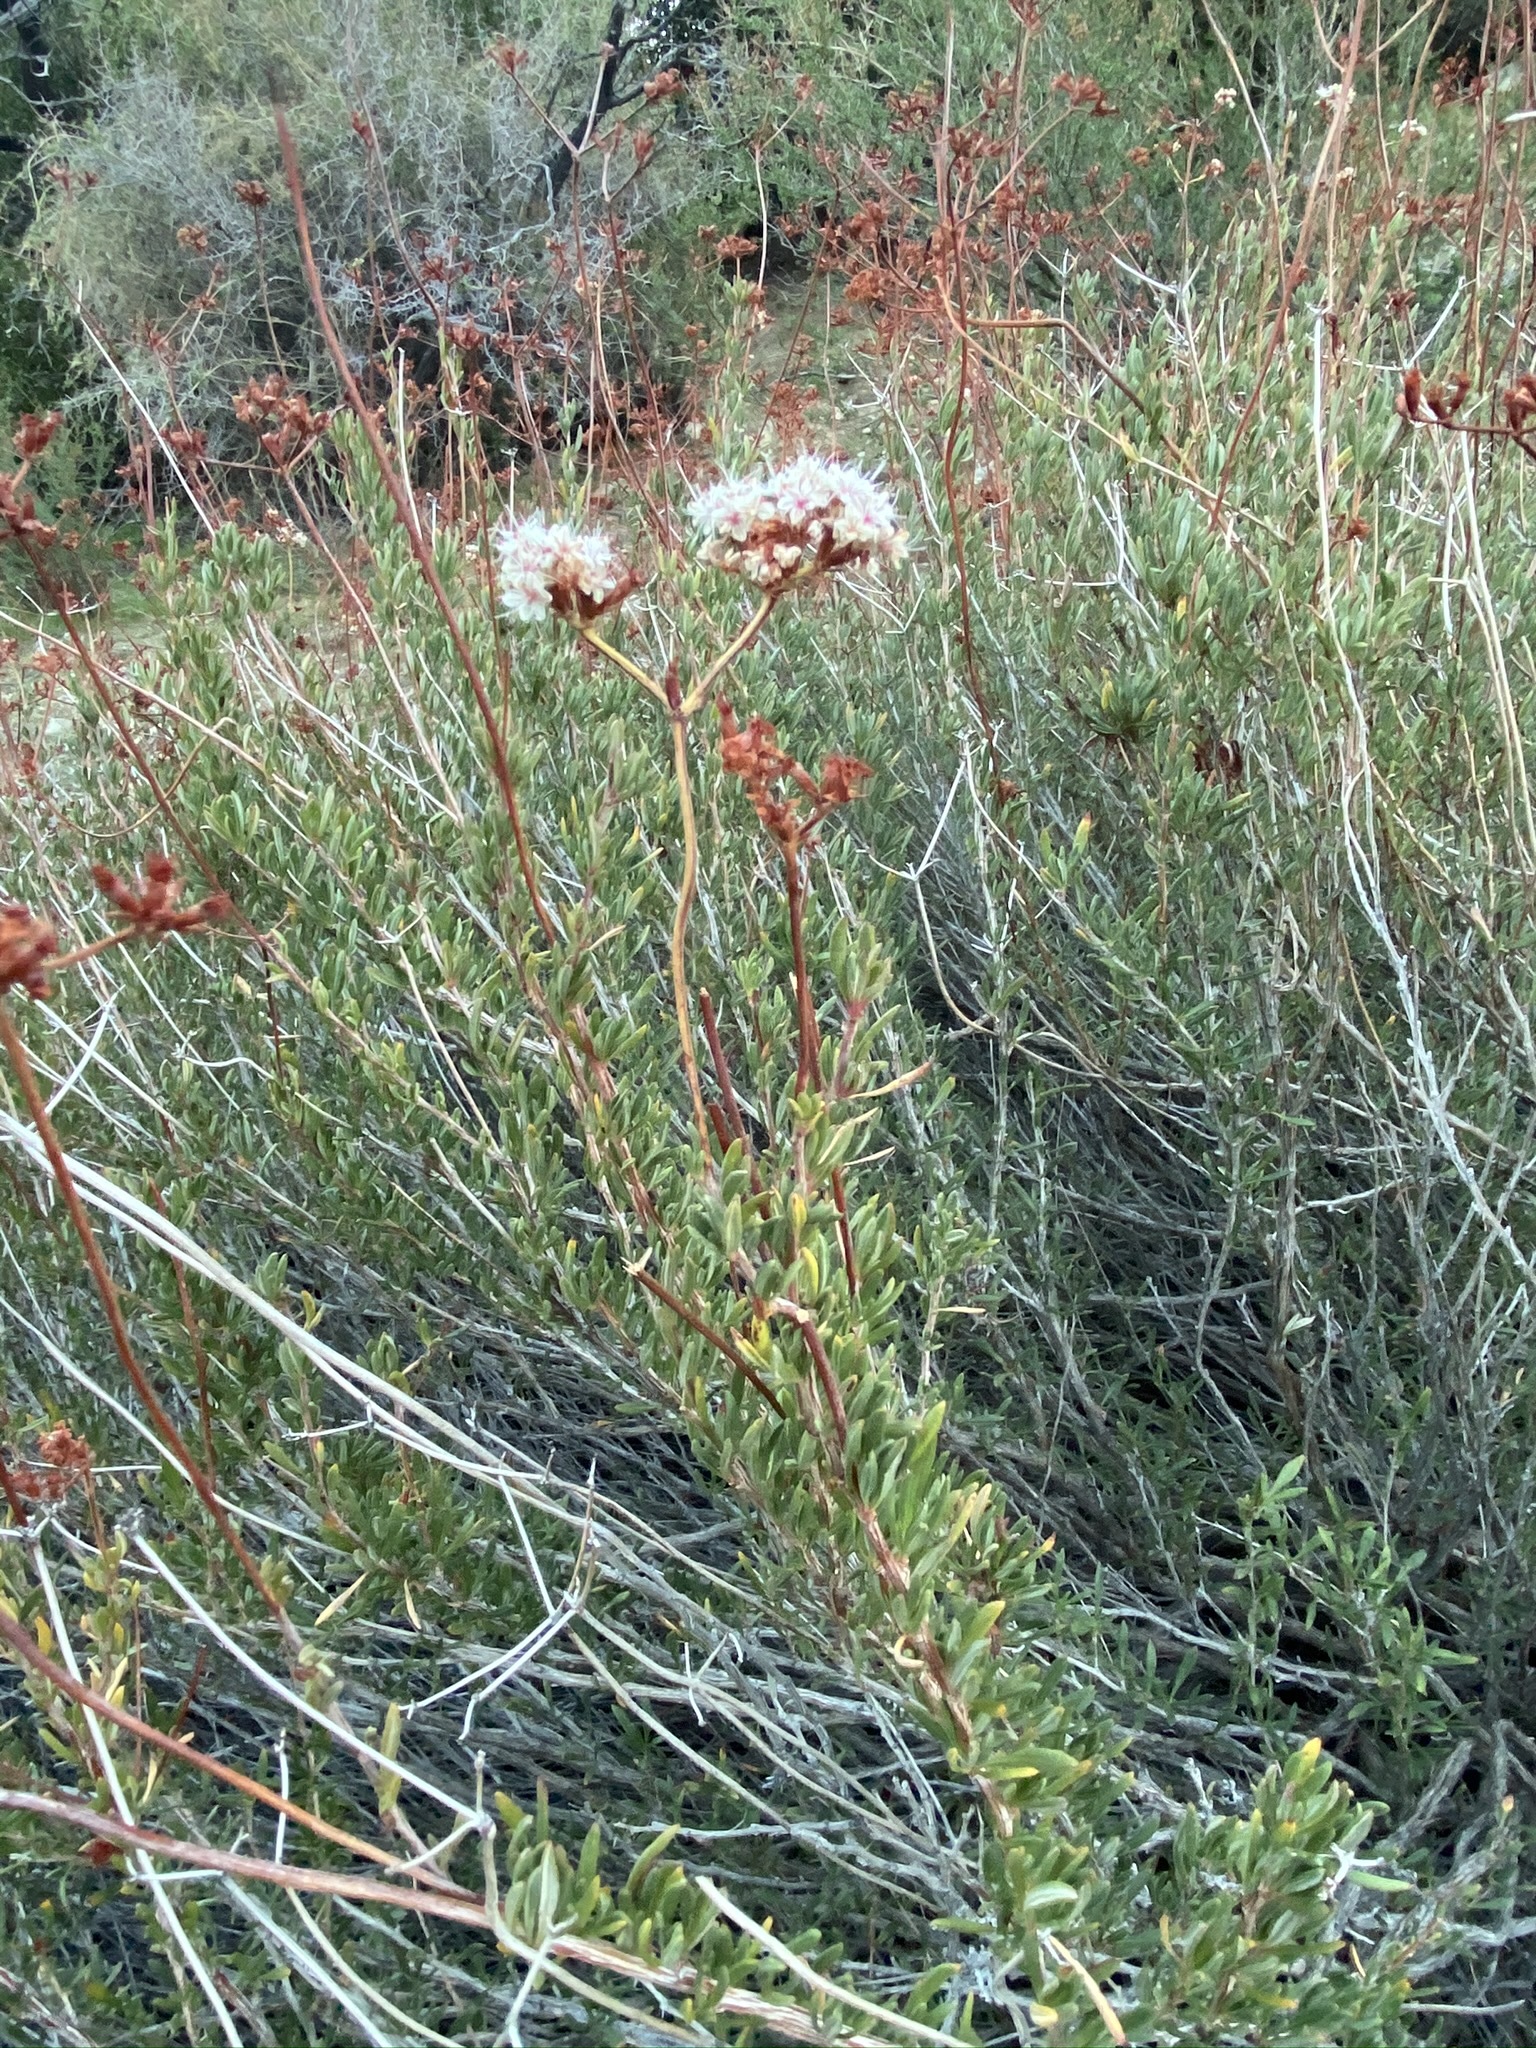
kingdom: Plantae
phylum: Tracheophyta
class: Magnoliopsida
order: Caryophyllales
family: Polygonaceae
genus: Eriogonum
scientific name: Eriogonum fasciculatum
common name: California wild buckwheat
